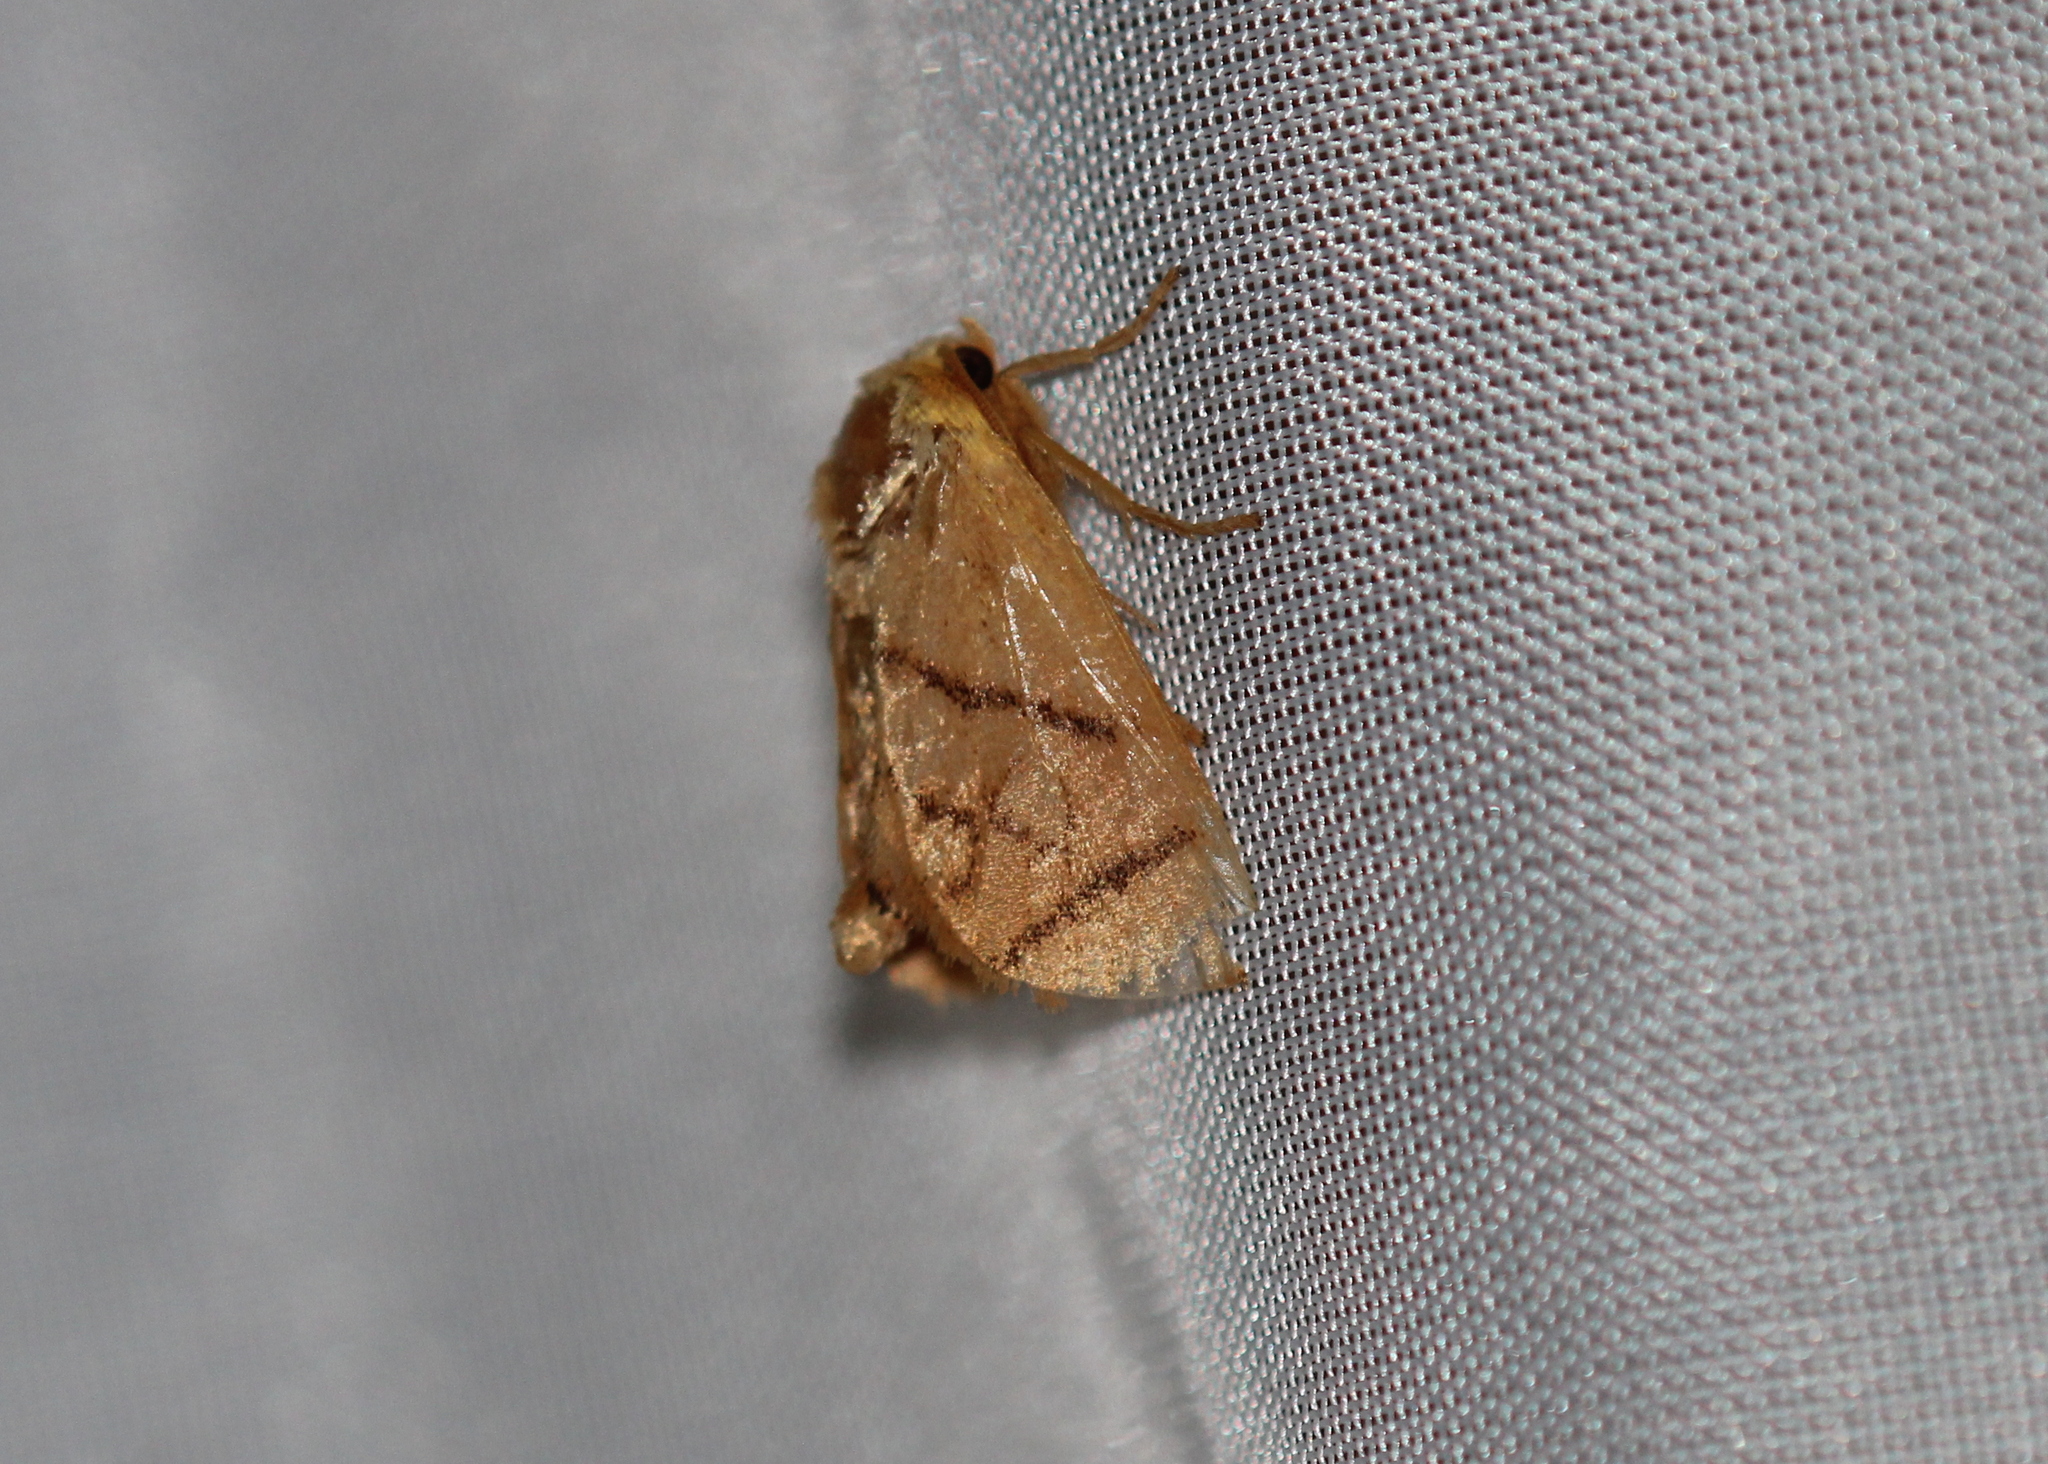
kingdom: Animalia
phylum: Arthropoda
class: Insecta
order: Lepidoptera
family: Limacodidae
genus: Apoda
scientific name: Apoda y-inversa
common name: Yellow-collared slug moth
